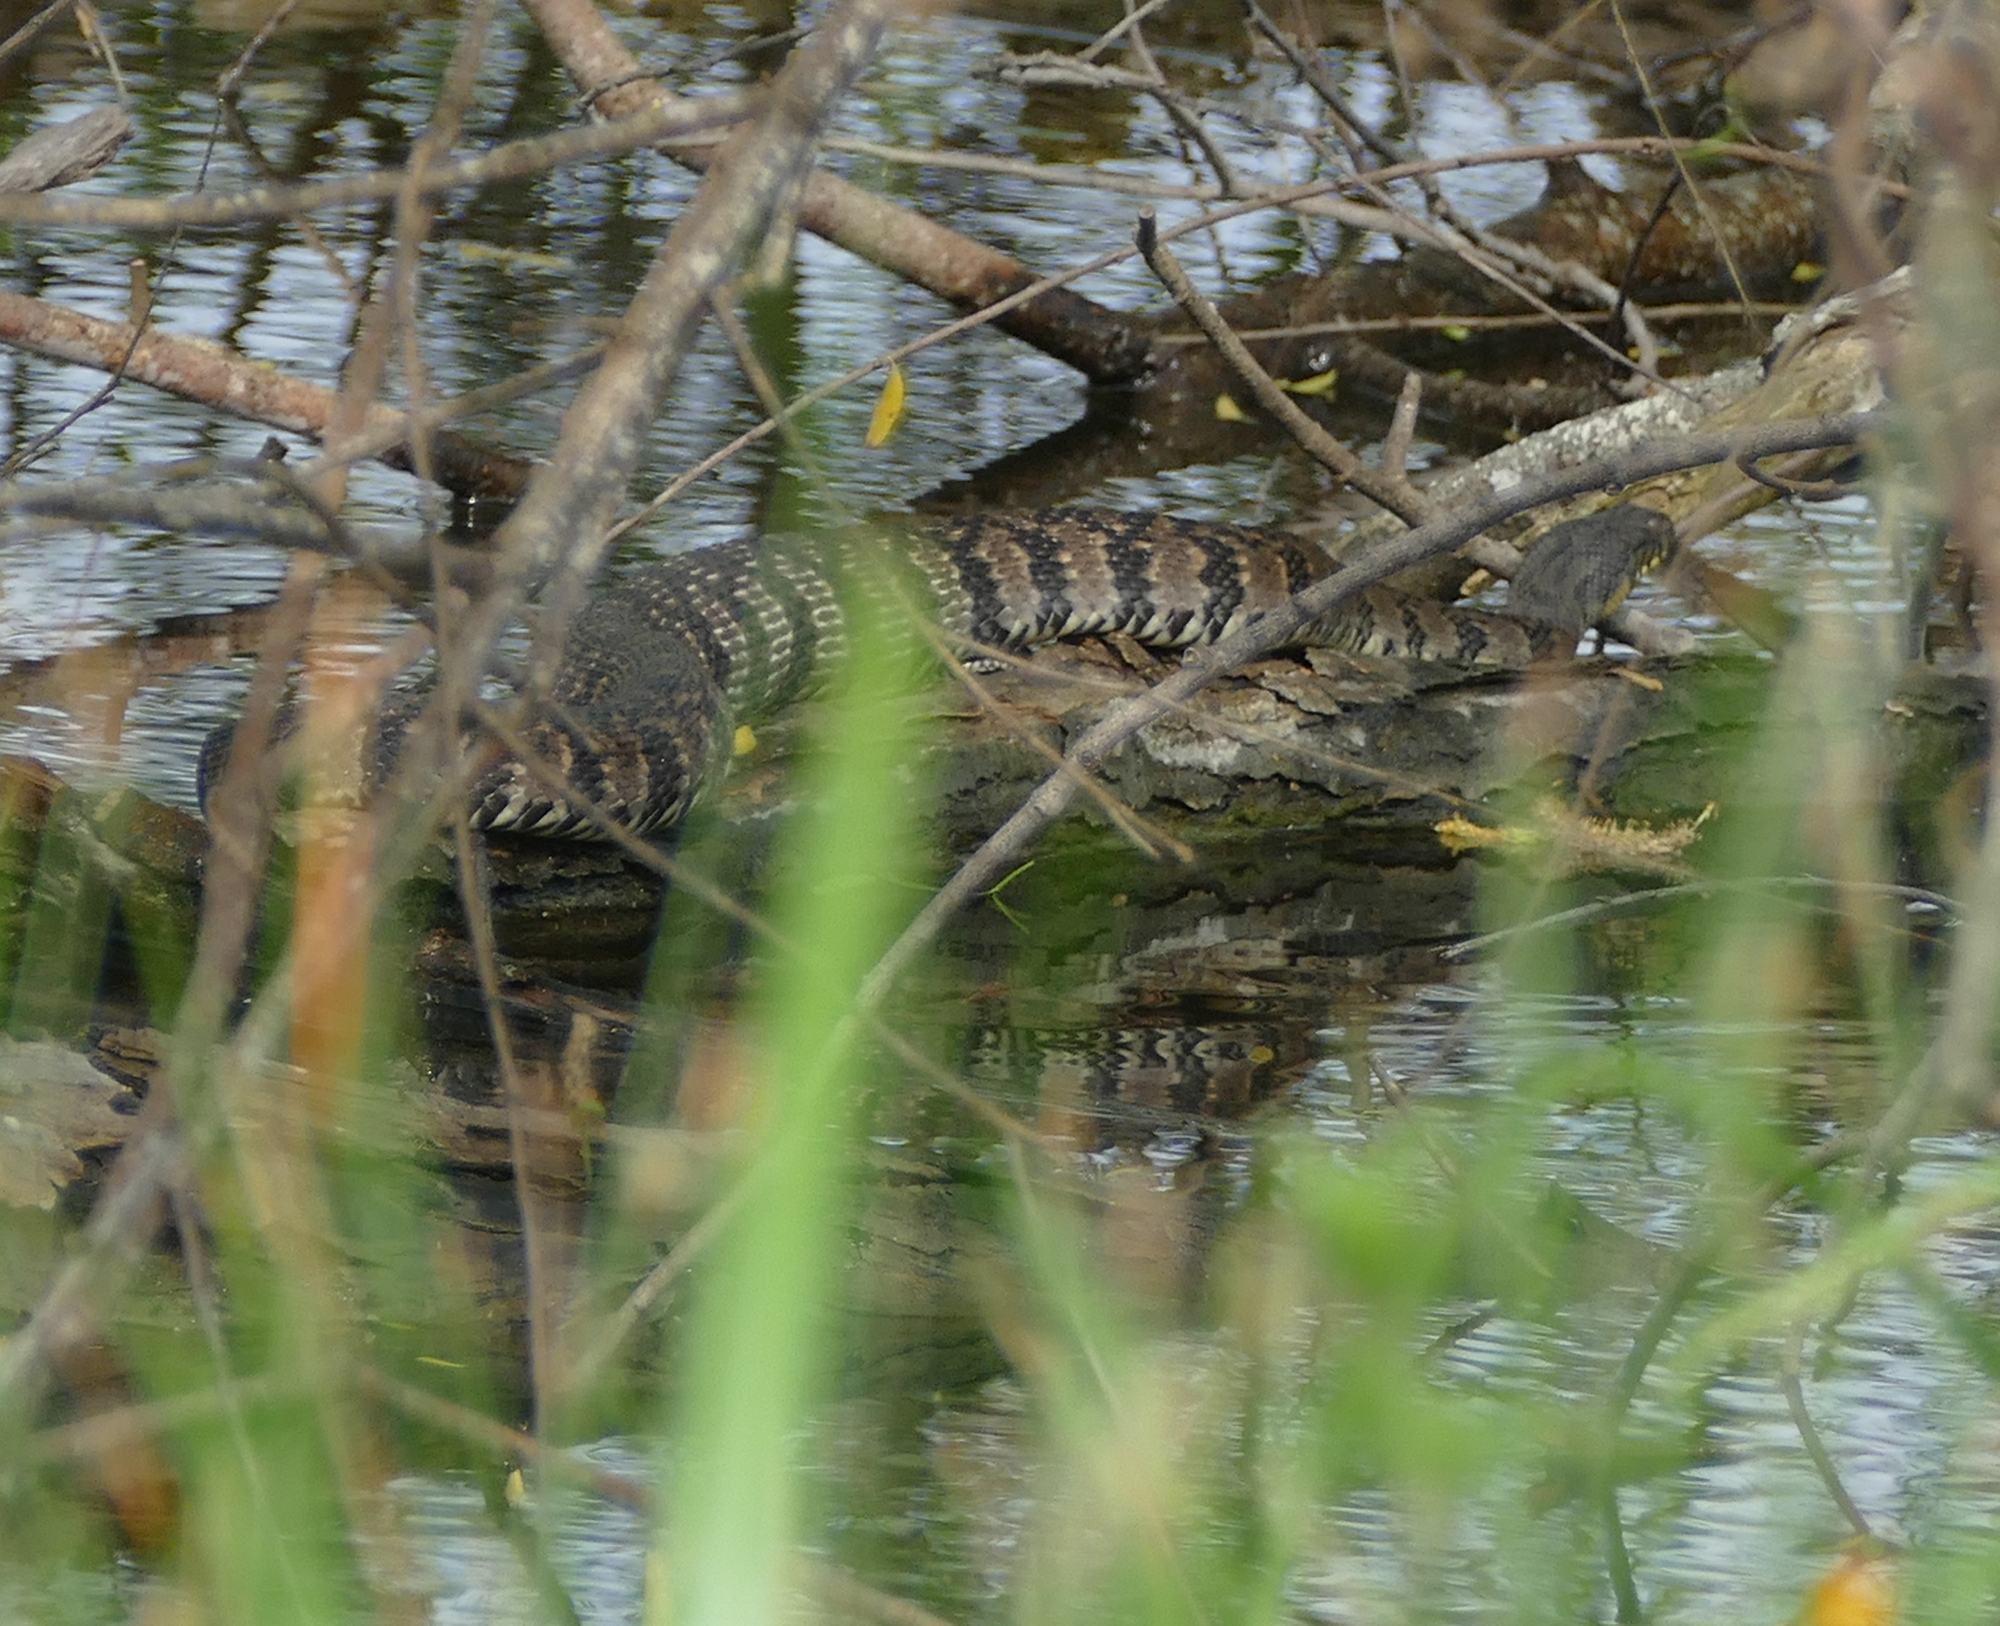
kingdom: Animalia
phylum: Chordata
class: Squamata
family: Colubridae
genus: Nerodia
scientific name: Nerodia rhombifer
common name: Diamondback water snake
